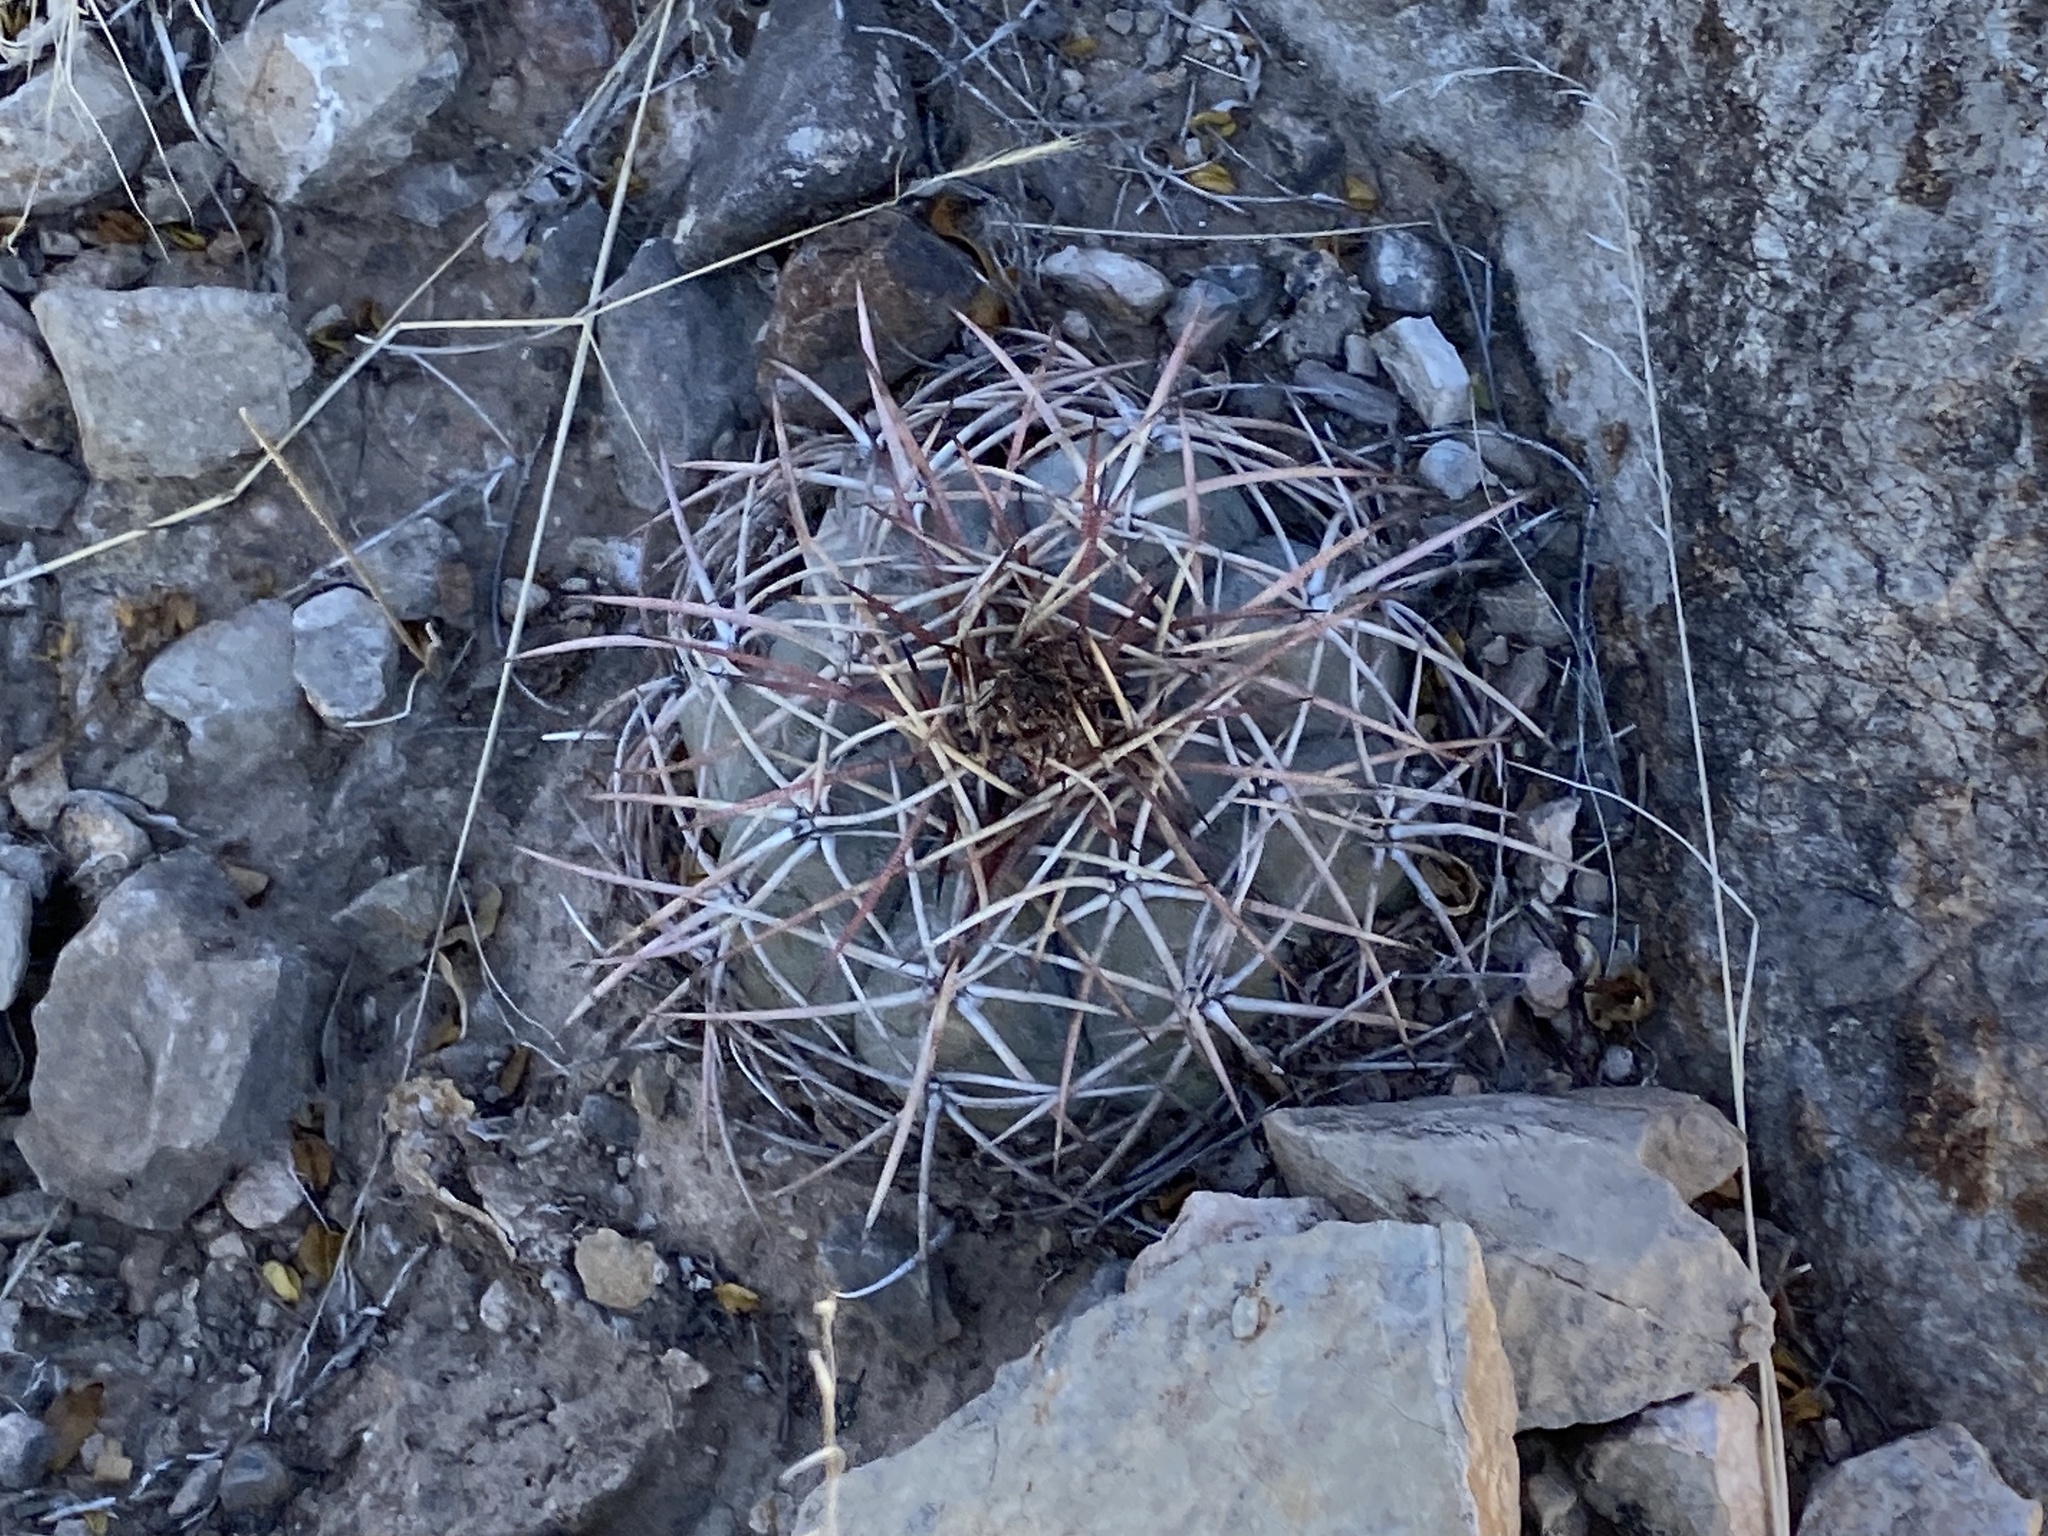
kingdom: Plantae
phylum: Tracheophyta
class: Magnoliopsida
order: Caryophyllales
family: Cactaceae
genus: Echinocactus
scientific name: Echinocactus horizonthalonius
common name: Devilshead
